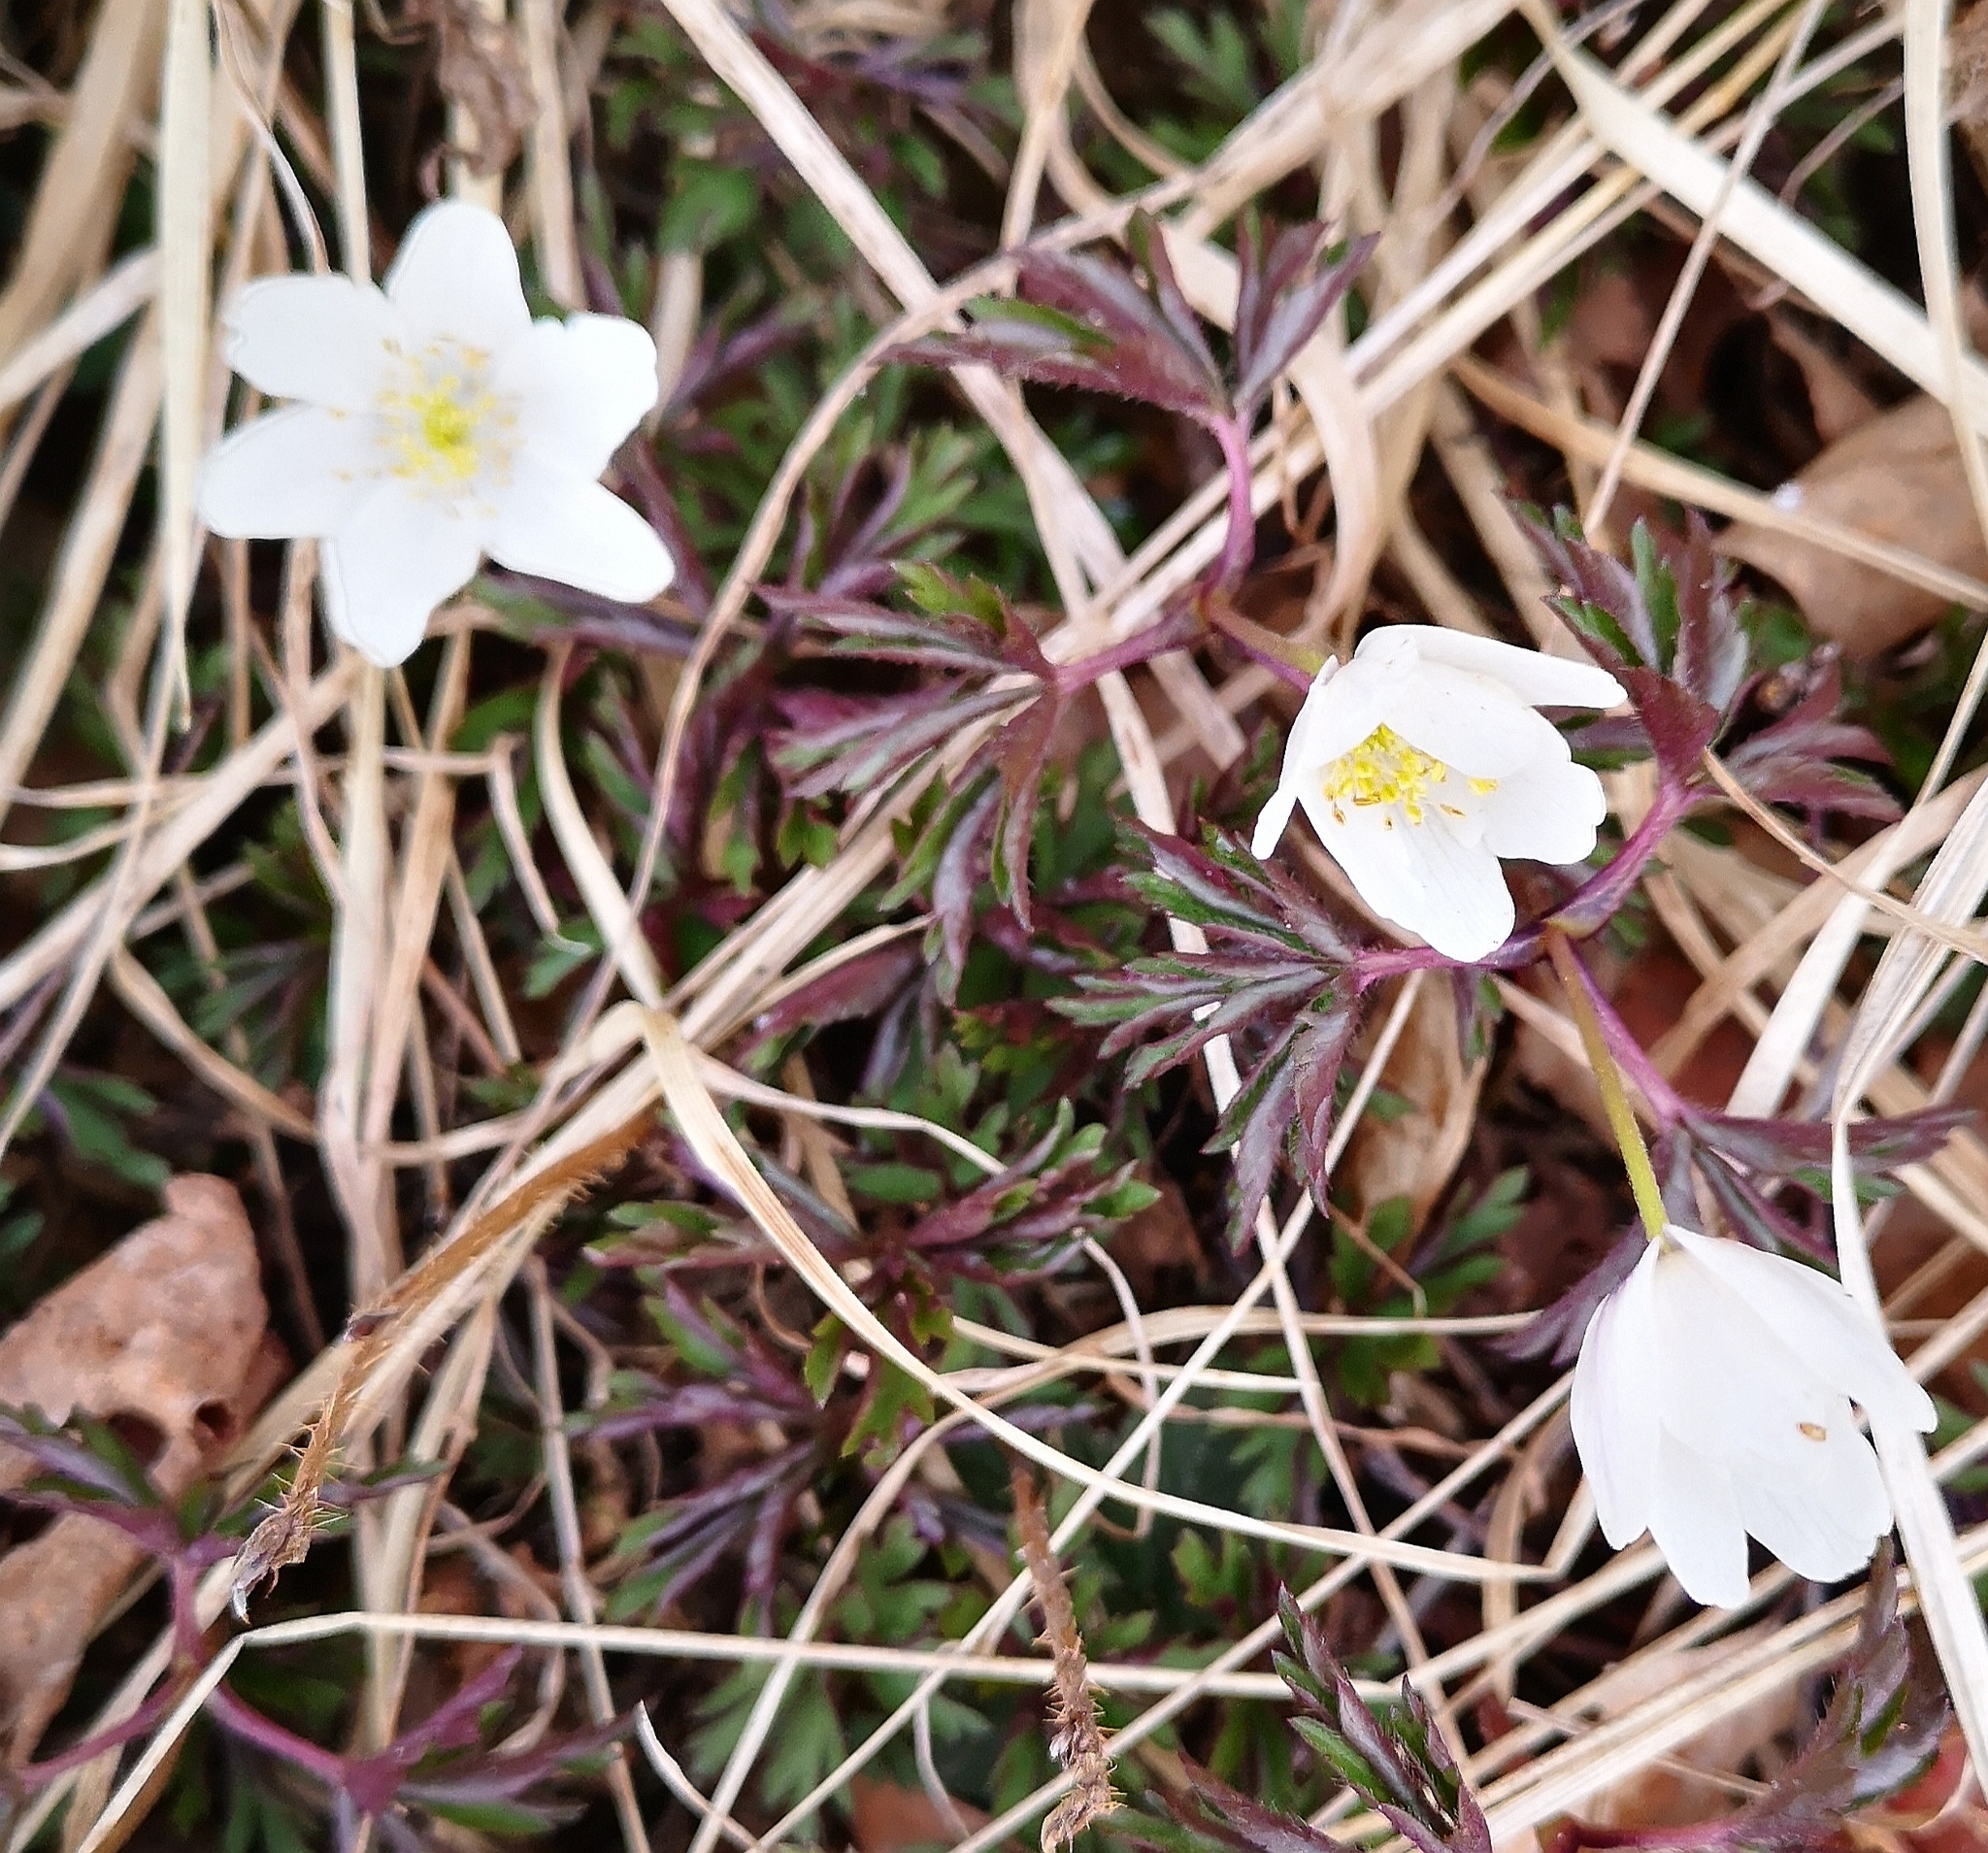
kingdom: Plantae
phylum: Tracheophyta
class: Magnoliopsida
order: Ranunculales
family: Ranunculaceae
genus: Anemone
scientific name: Anemone nemorosa
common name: Wood anemone
